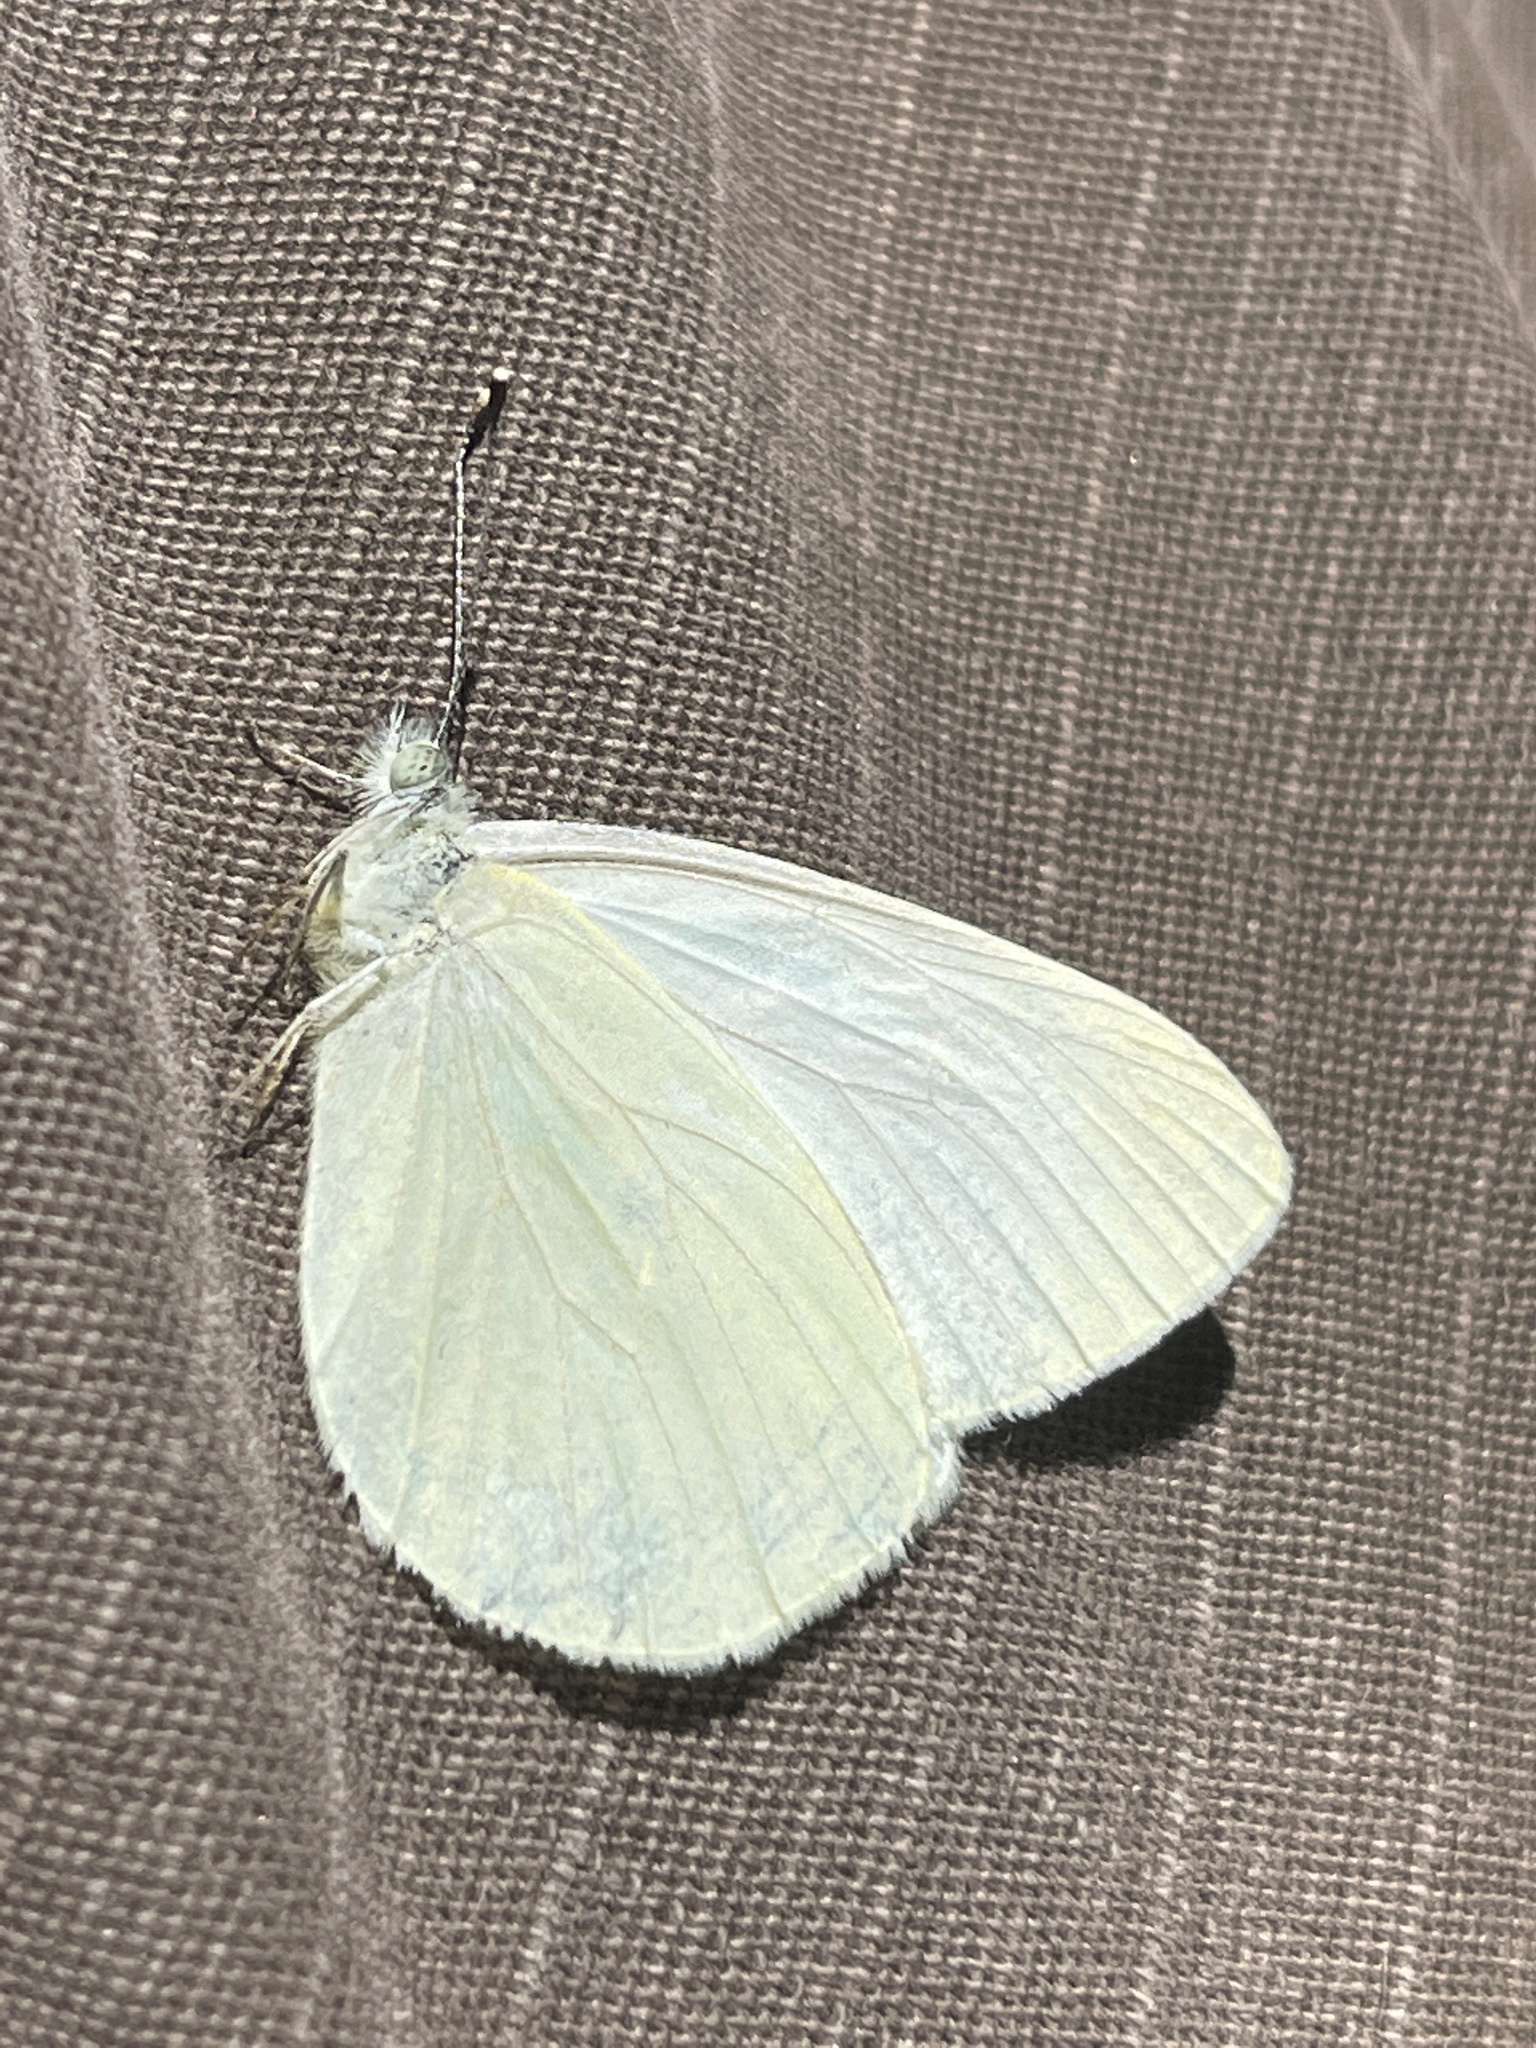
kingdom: Animalia
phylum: Arthropoda
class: Insecta
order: Lepidoptera
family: Pieridae
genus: Pieris
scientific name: Pieris marginalis
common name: Margined white
